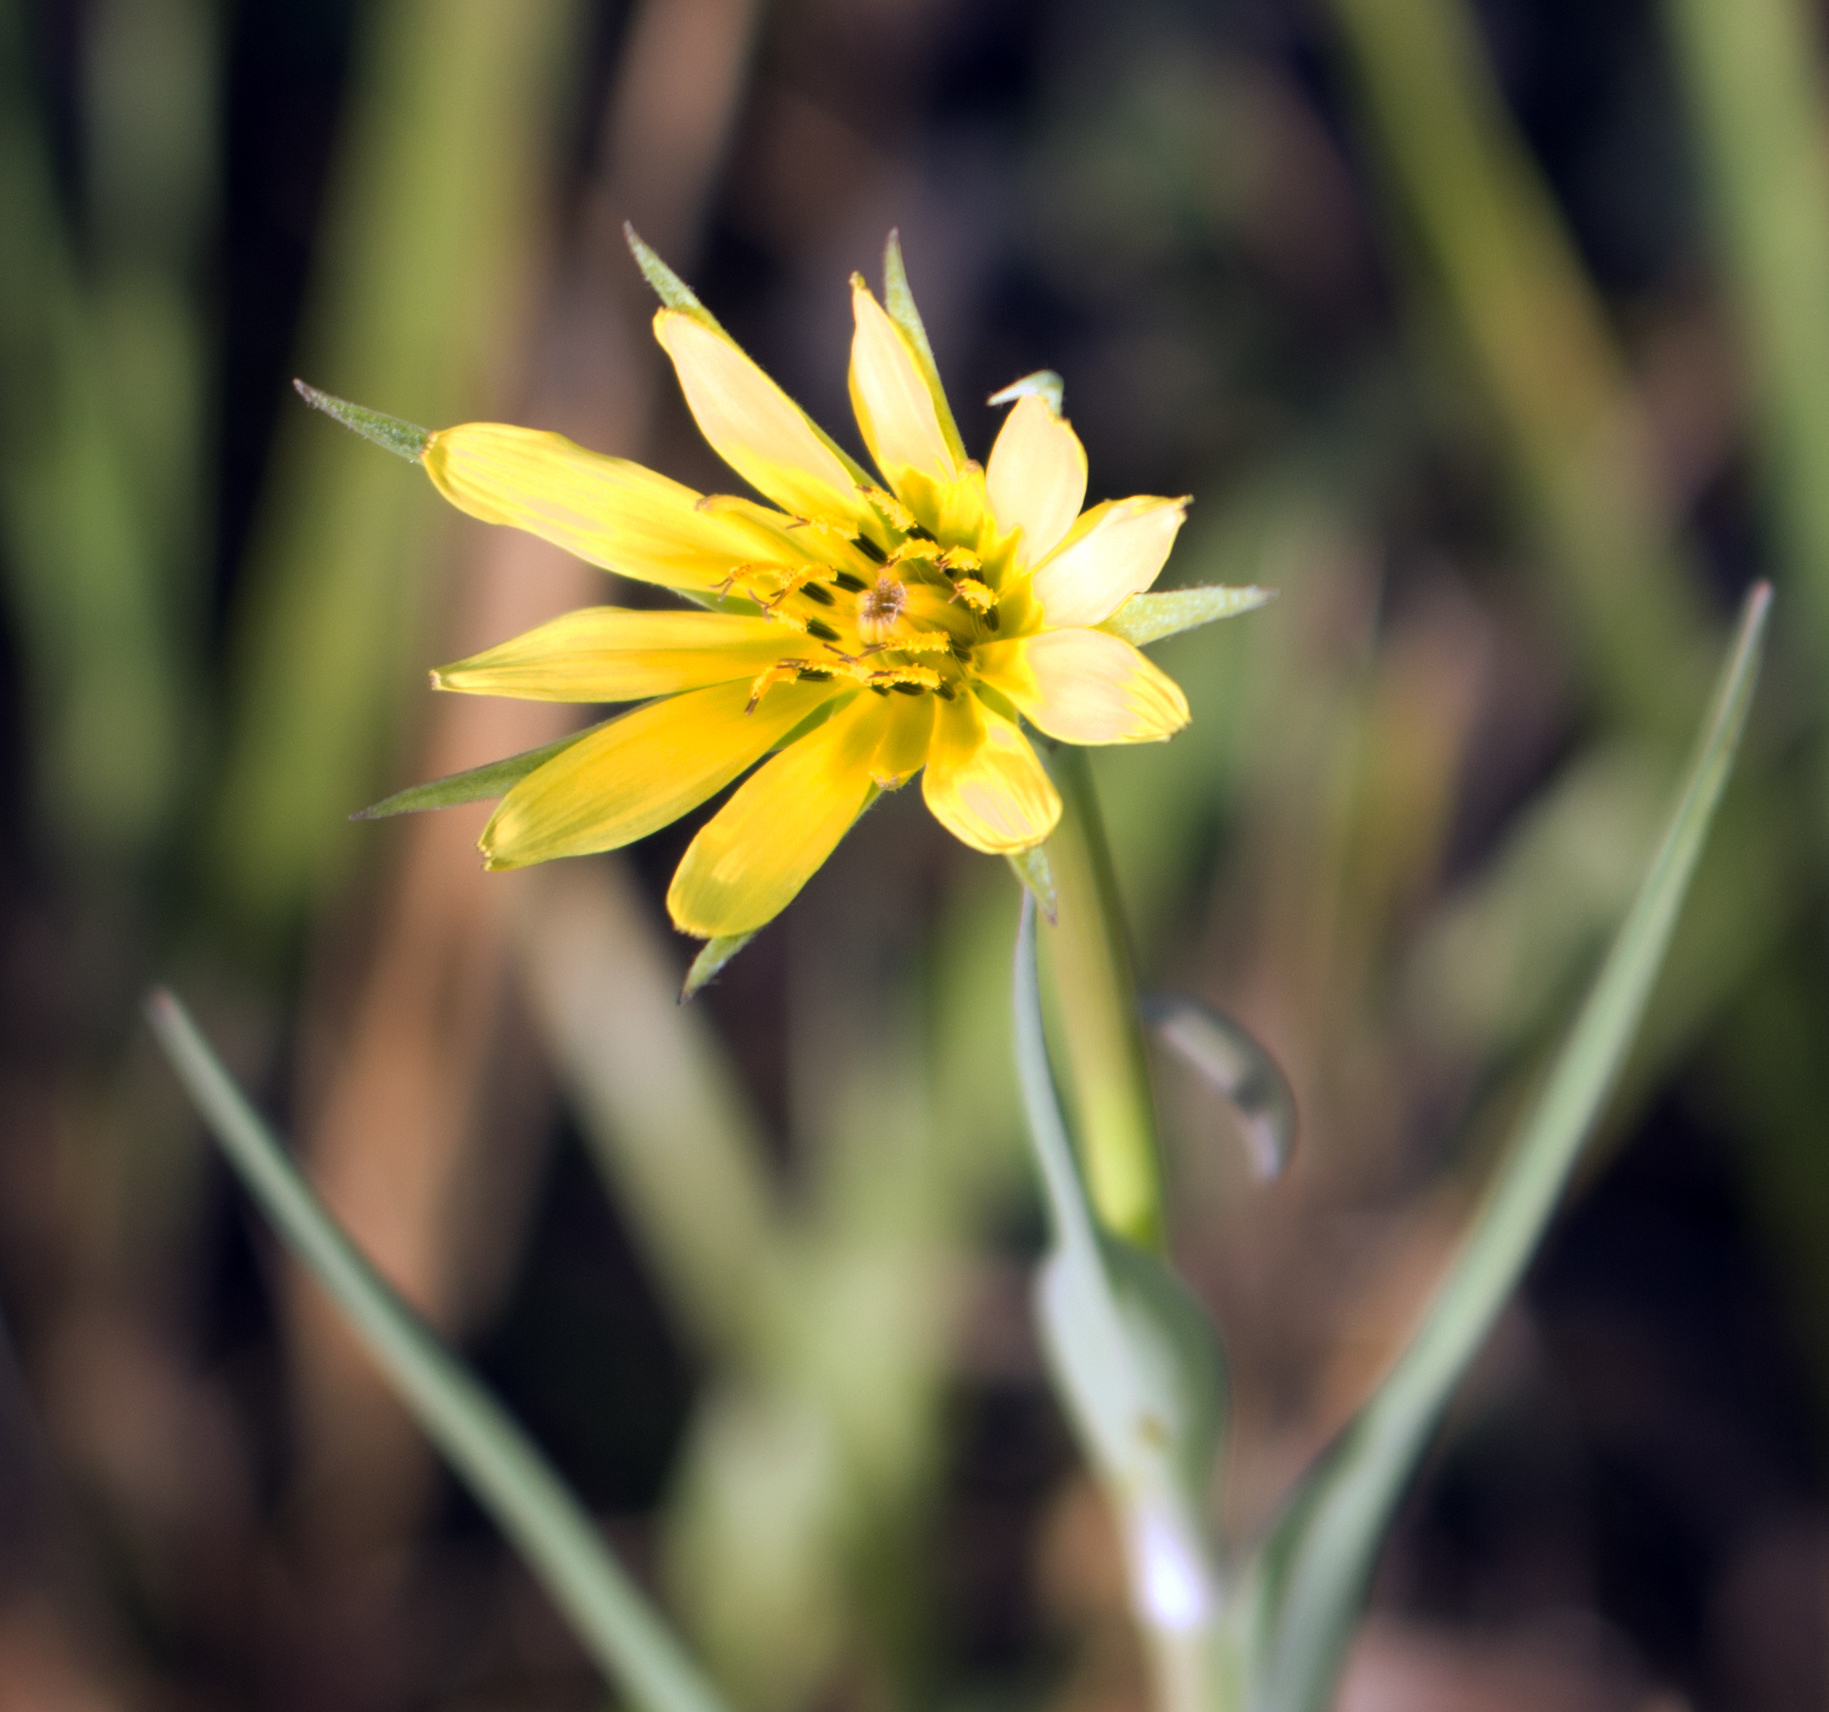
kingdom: Plantae
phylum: Tracheophyta
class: Magnoliopsida
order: Asterales
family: Asteraceae
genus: Tragopogon
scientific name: Tragopogon dubius
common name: Yellow salsify
